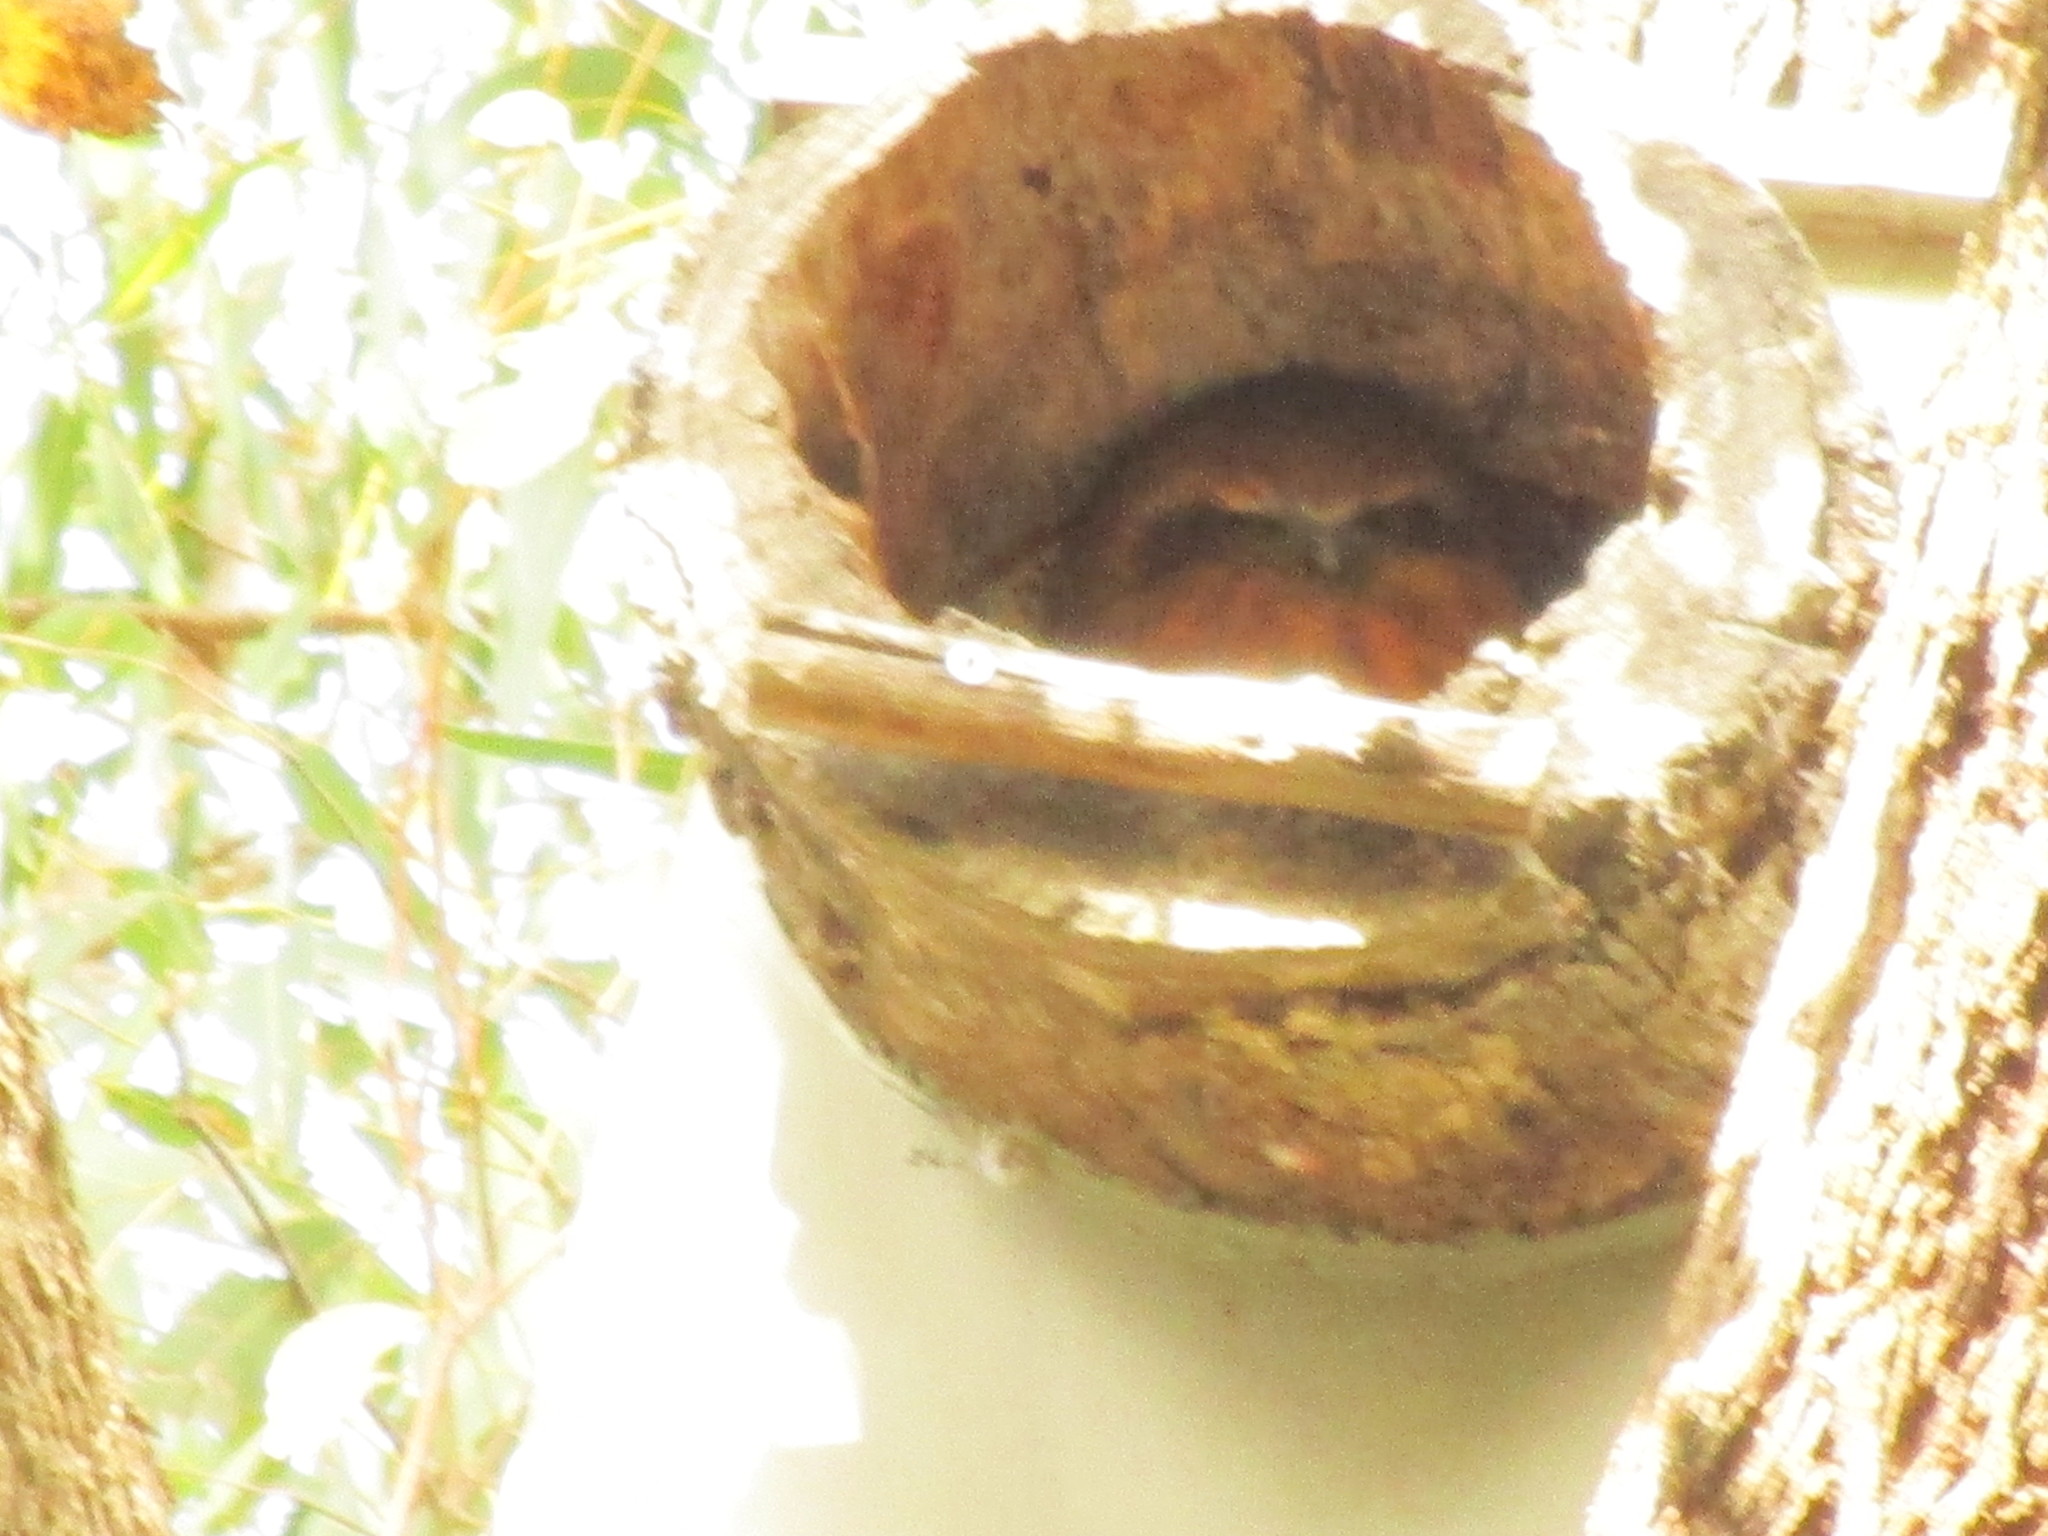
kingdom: Animalia
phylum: Chordata
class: Aves
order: Strigiformes
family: Strigidae
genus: Ninox
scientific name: Ninox boobook
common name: Southern boobook
